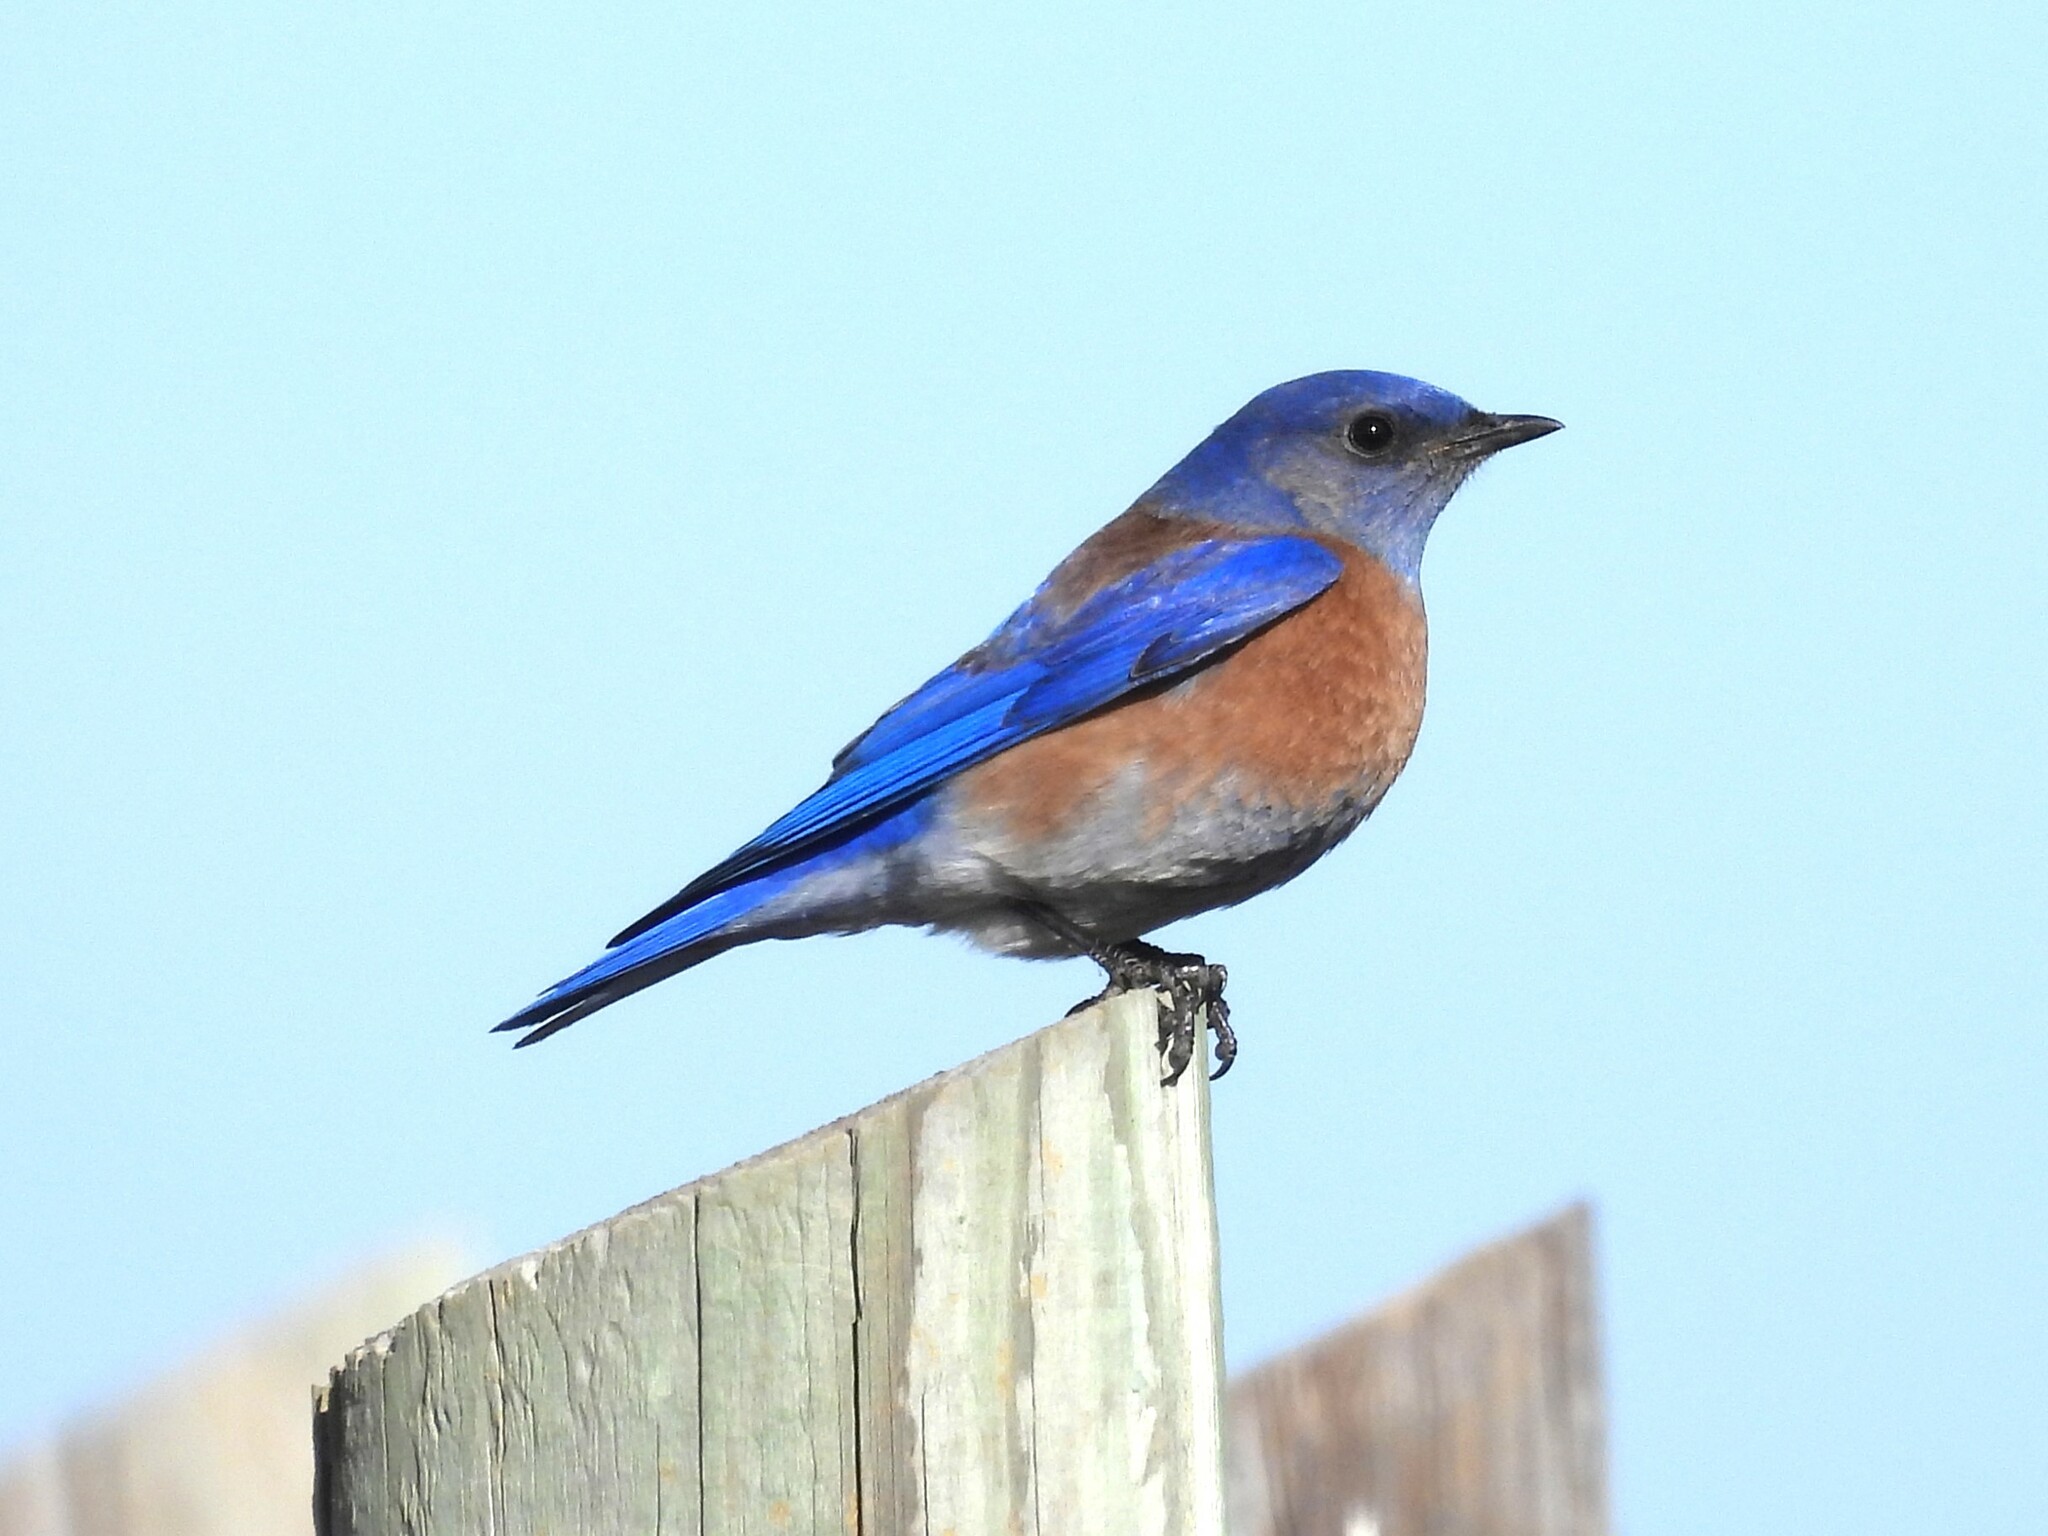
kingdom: Animalia
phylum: Chordata
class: Aves
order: Passeriformes
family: Turdidae
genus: Sialia
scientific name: Sialia mexicana
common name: Western bluebird
